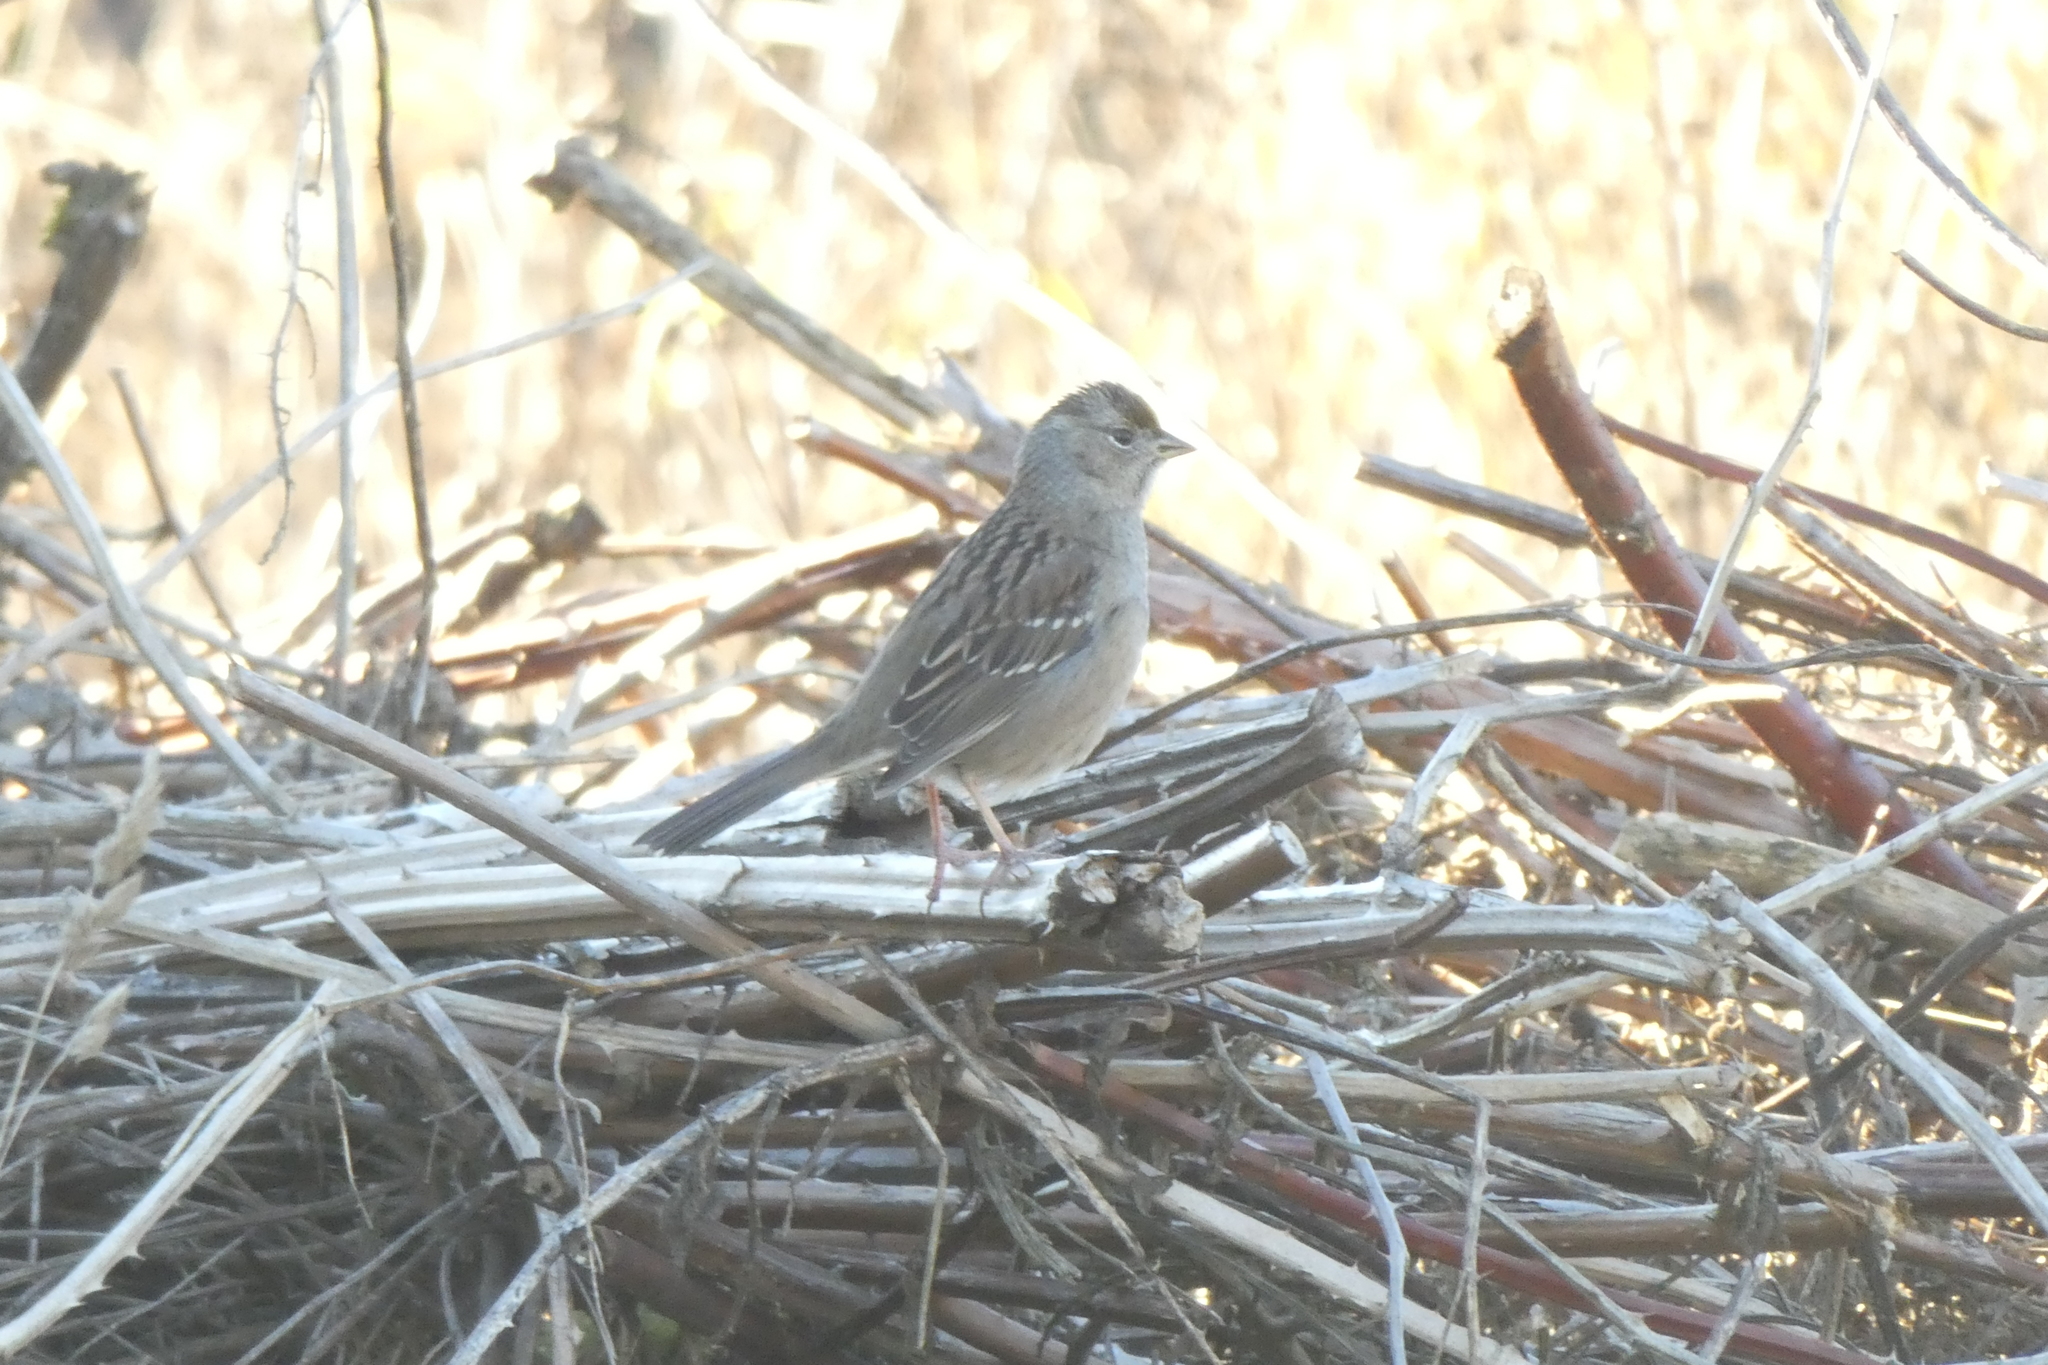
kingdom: Animalia
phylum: Chordata
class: Aves
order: Passeriformes
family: Passerellidae
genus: Zonotrichia
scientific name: Zonotrichia atricapilla
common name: Golden-crowned sparrow
